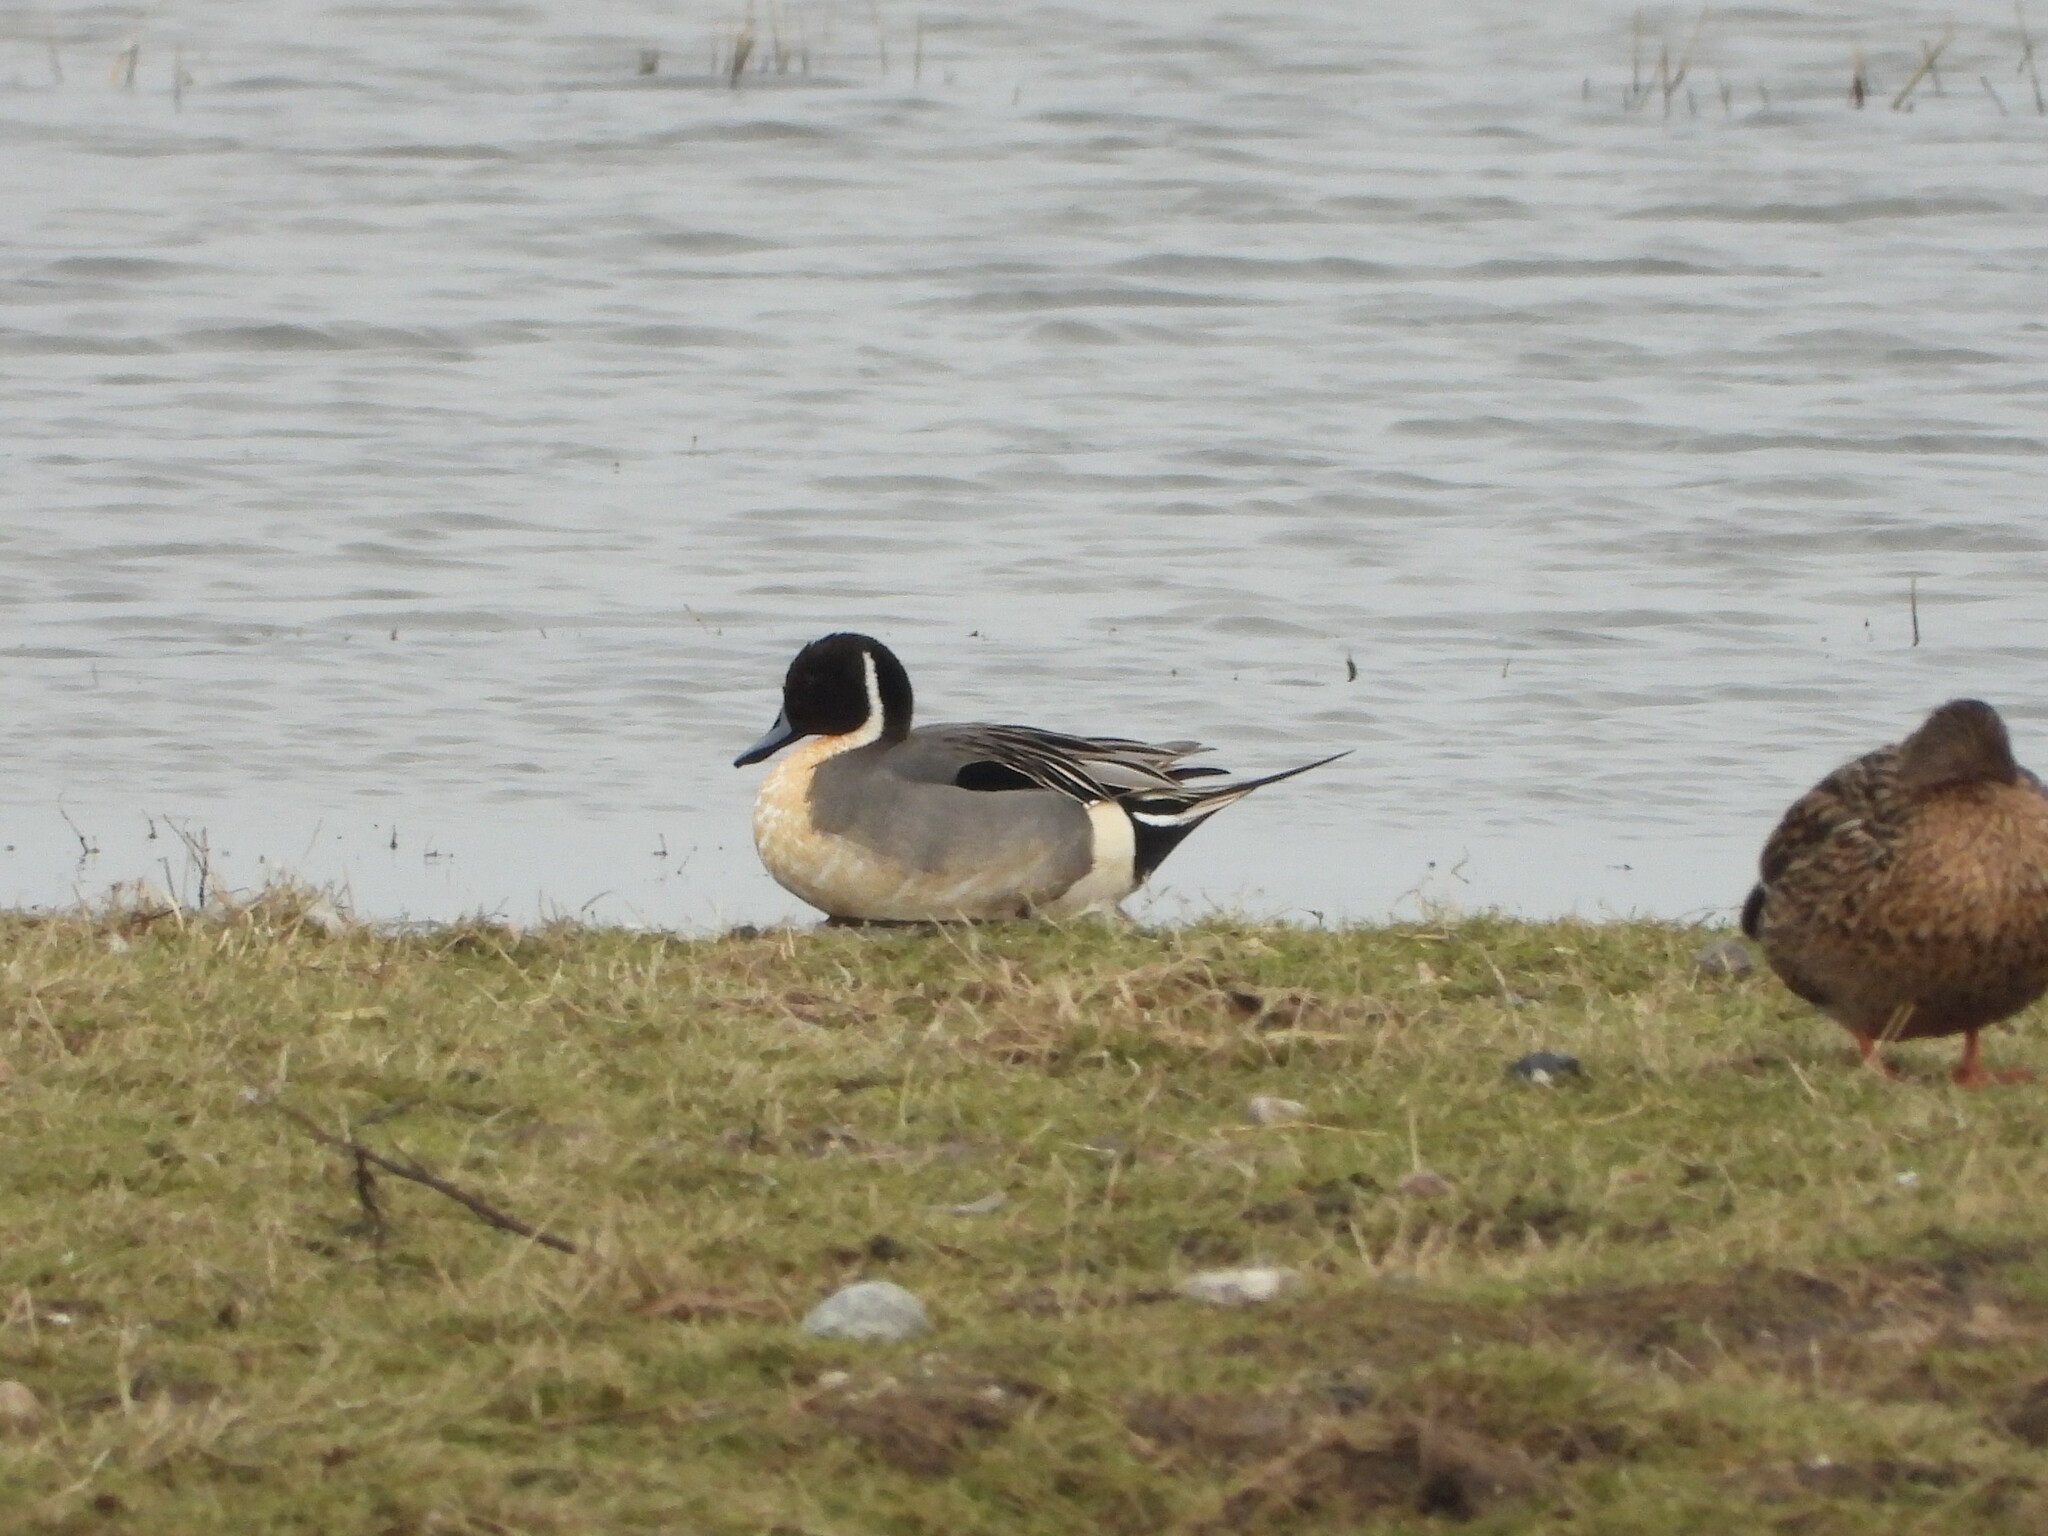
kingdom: Animalia
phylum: Chordata
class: Aves
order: Anseriformes
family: Anatidae
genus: Anas
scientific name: Anas acuta
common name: Northern pintail
